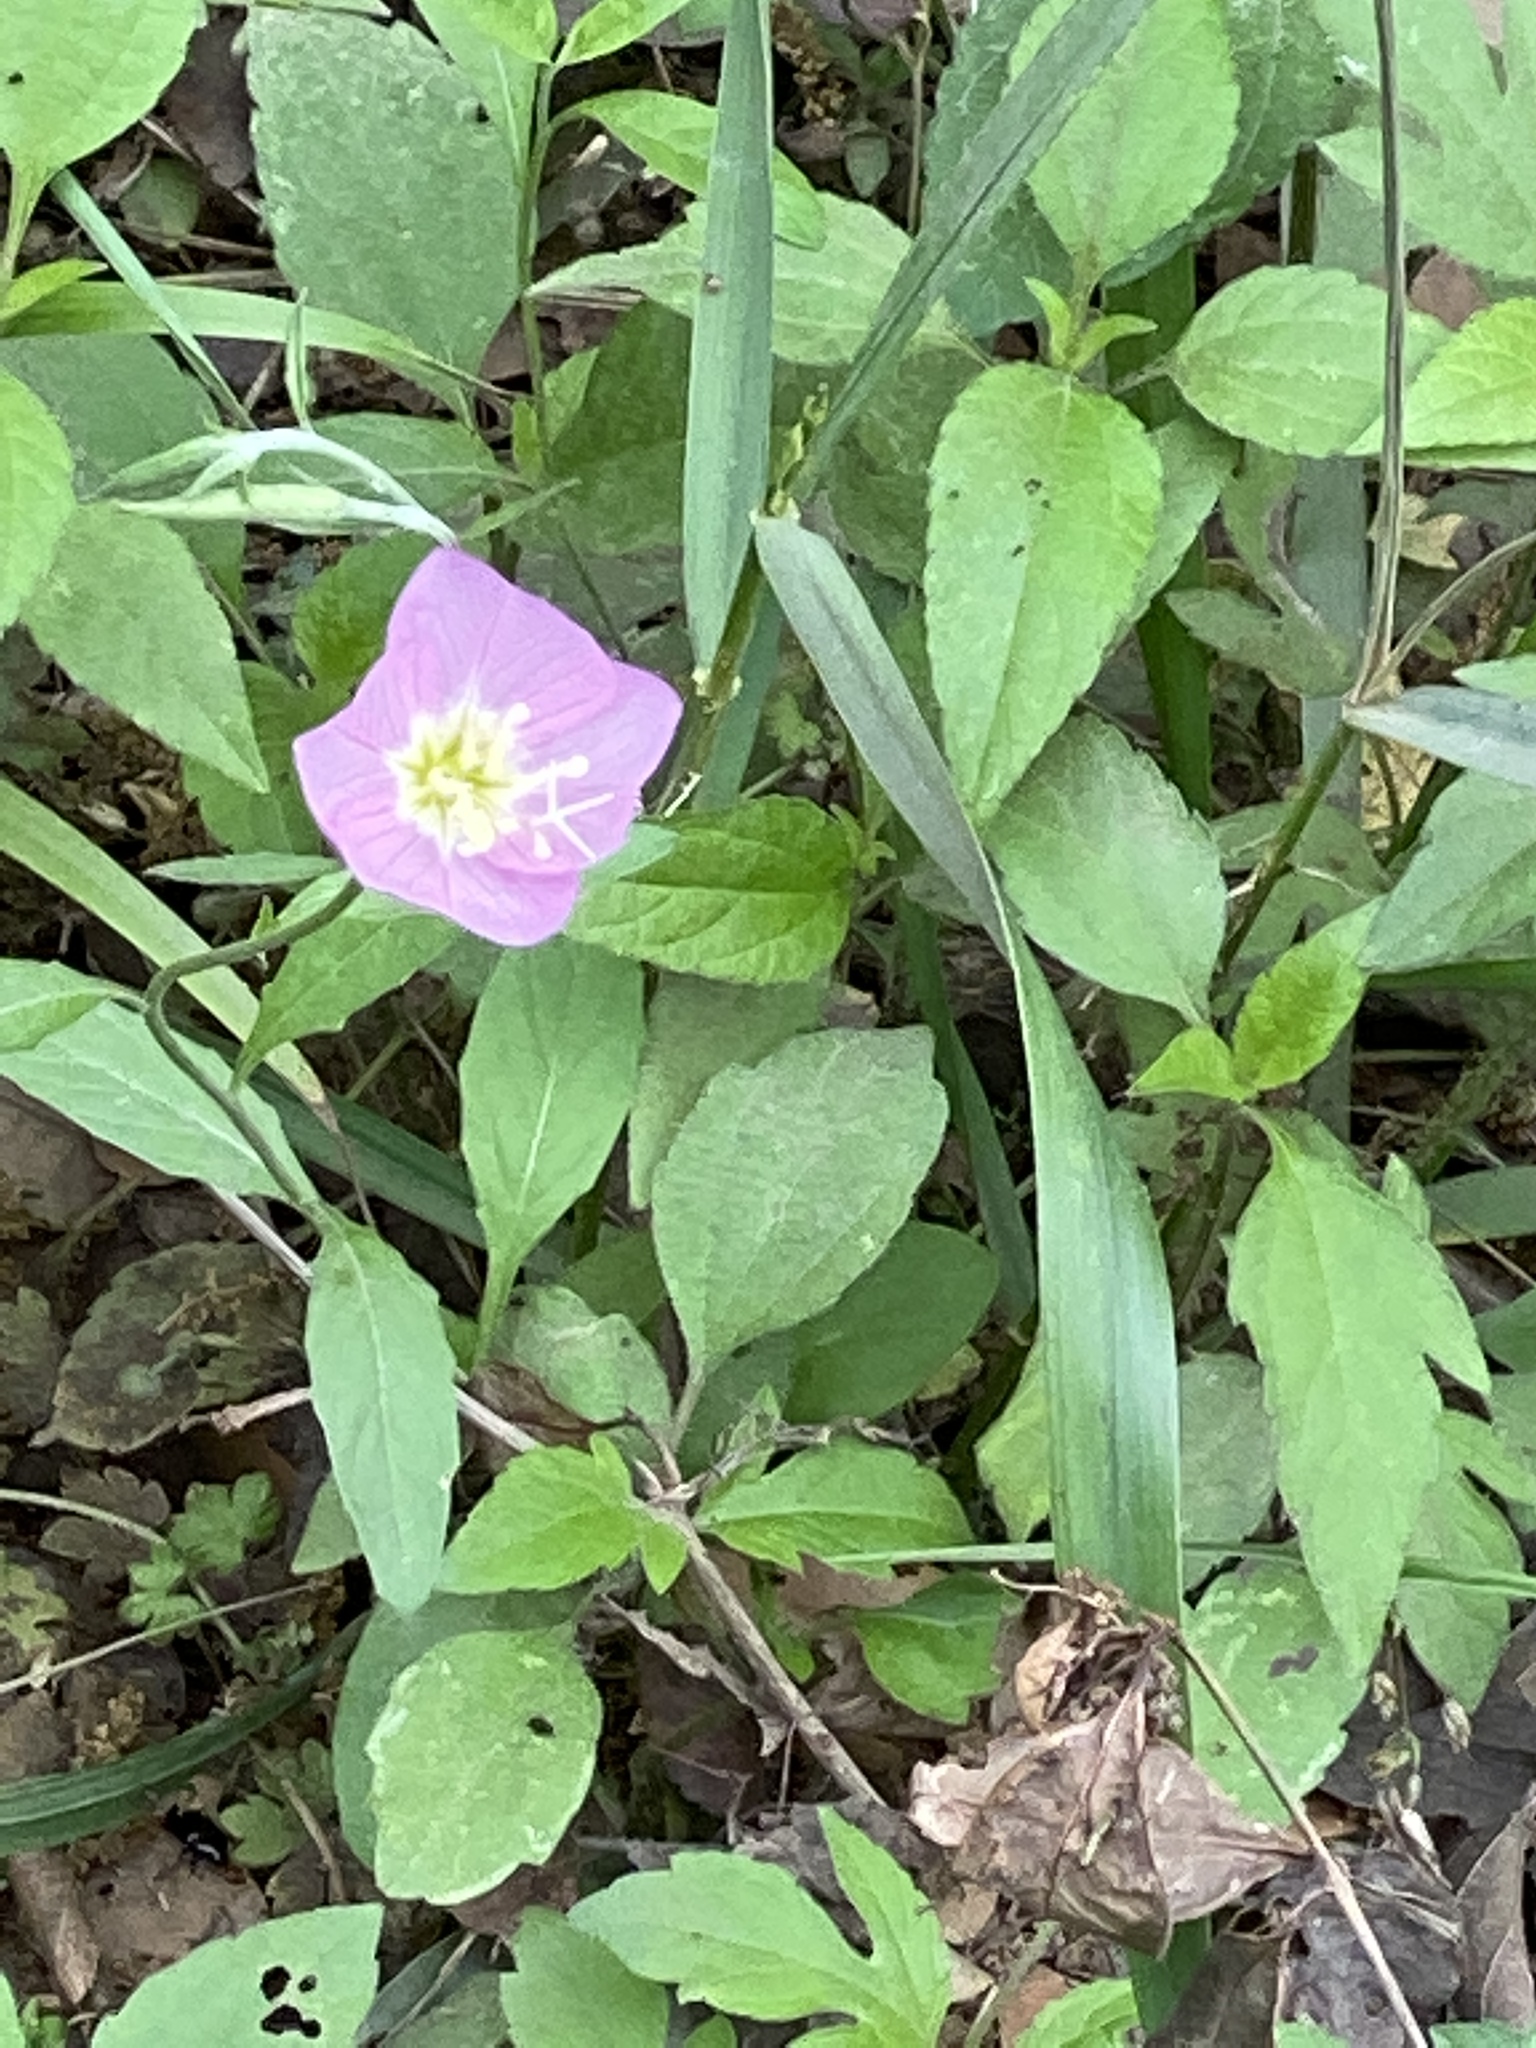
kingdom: Plantae
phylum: Tracheophyta
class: Magnoliopsida
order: Myrtales
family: Onagraceae
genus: Oenothera
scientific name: Oenothera speciosa
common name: White evening-primrose
